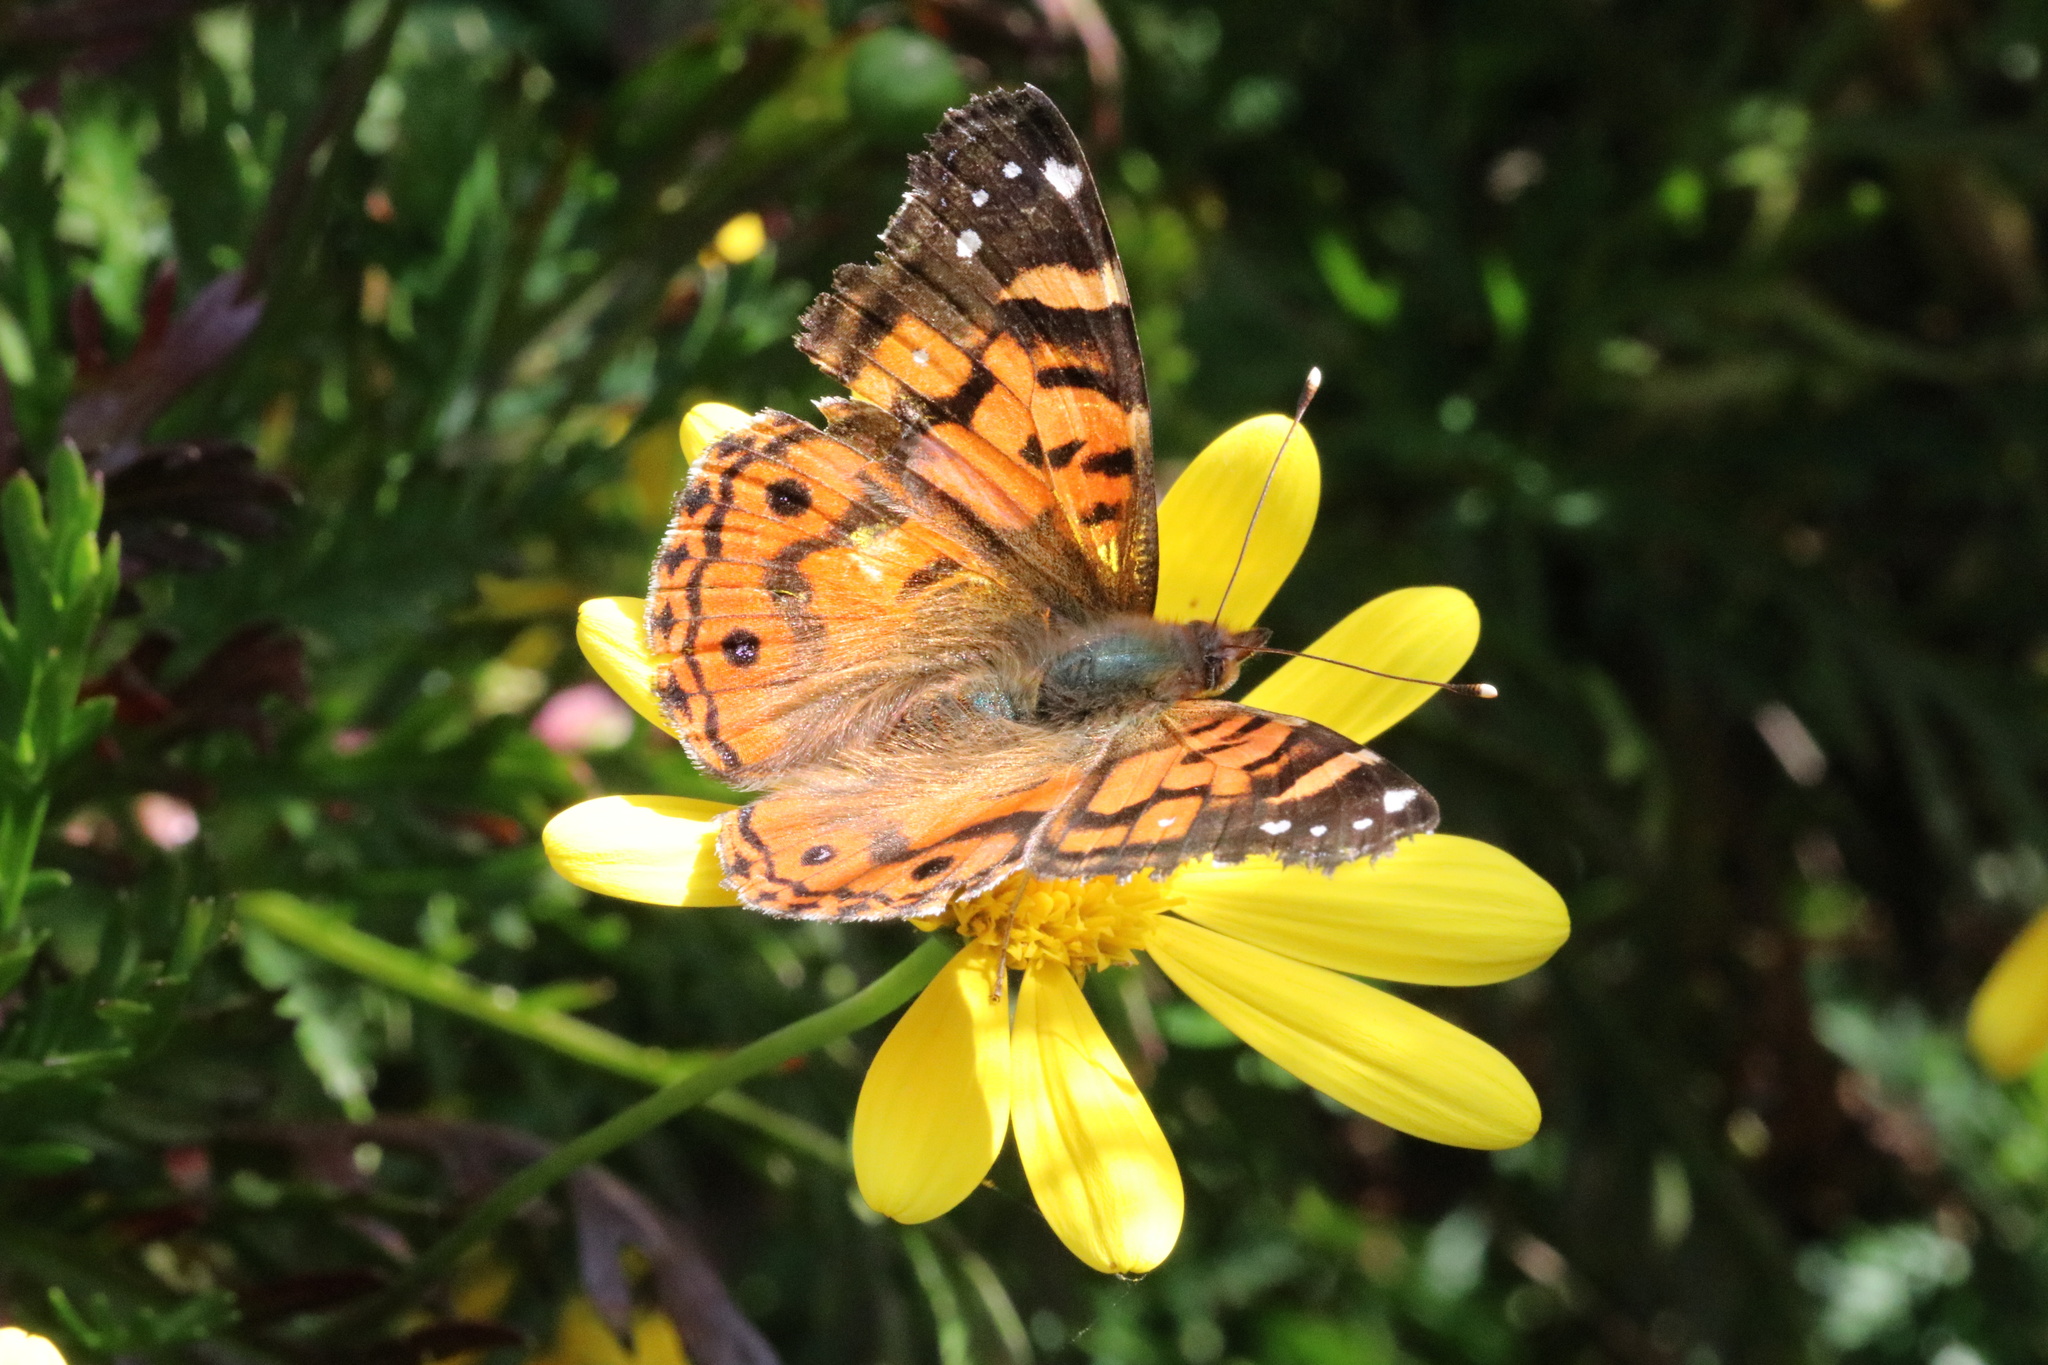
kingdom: Animalia
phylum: Arthropoda
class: Insecta
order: Lepidoptera
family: Nymphalidae
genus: Vanessa
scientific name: Vanessa terpsichore
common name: Chilean lady
